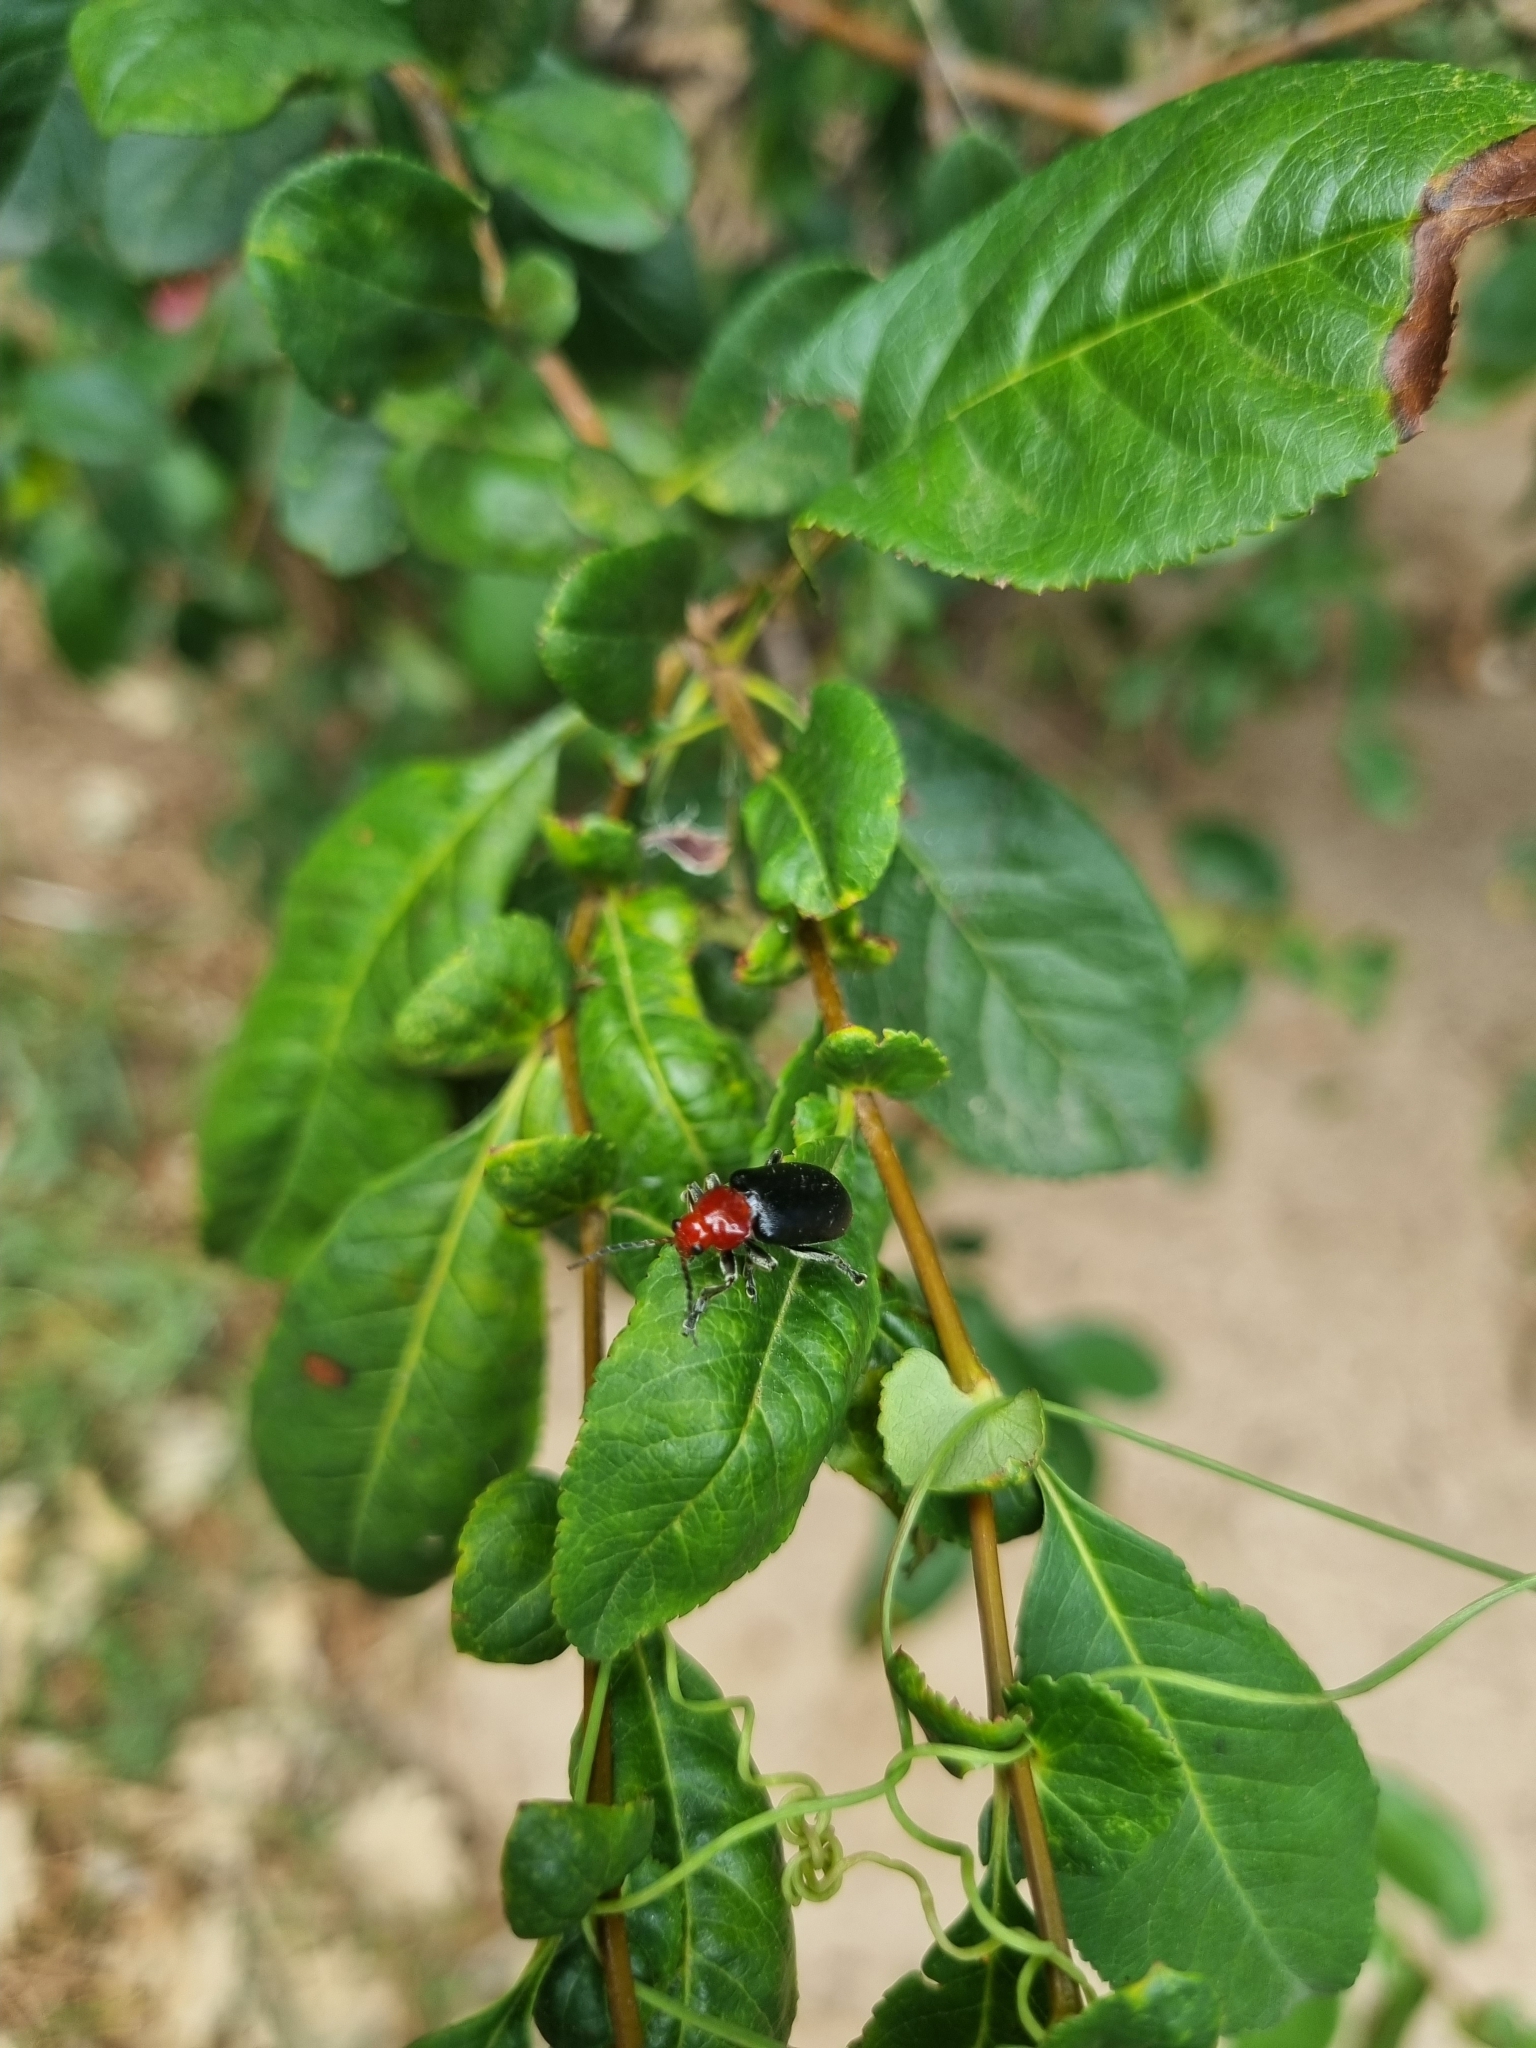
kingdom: Animalia
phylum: Arthropoda
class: Insecta
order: Coleoptera
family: Chrysomelidae
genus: Cacoscelis
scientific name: Cacoscelis
